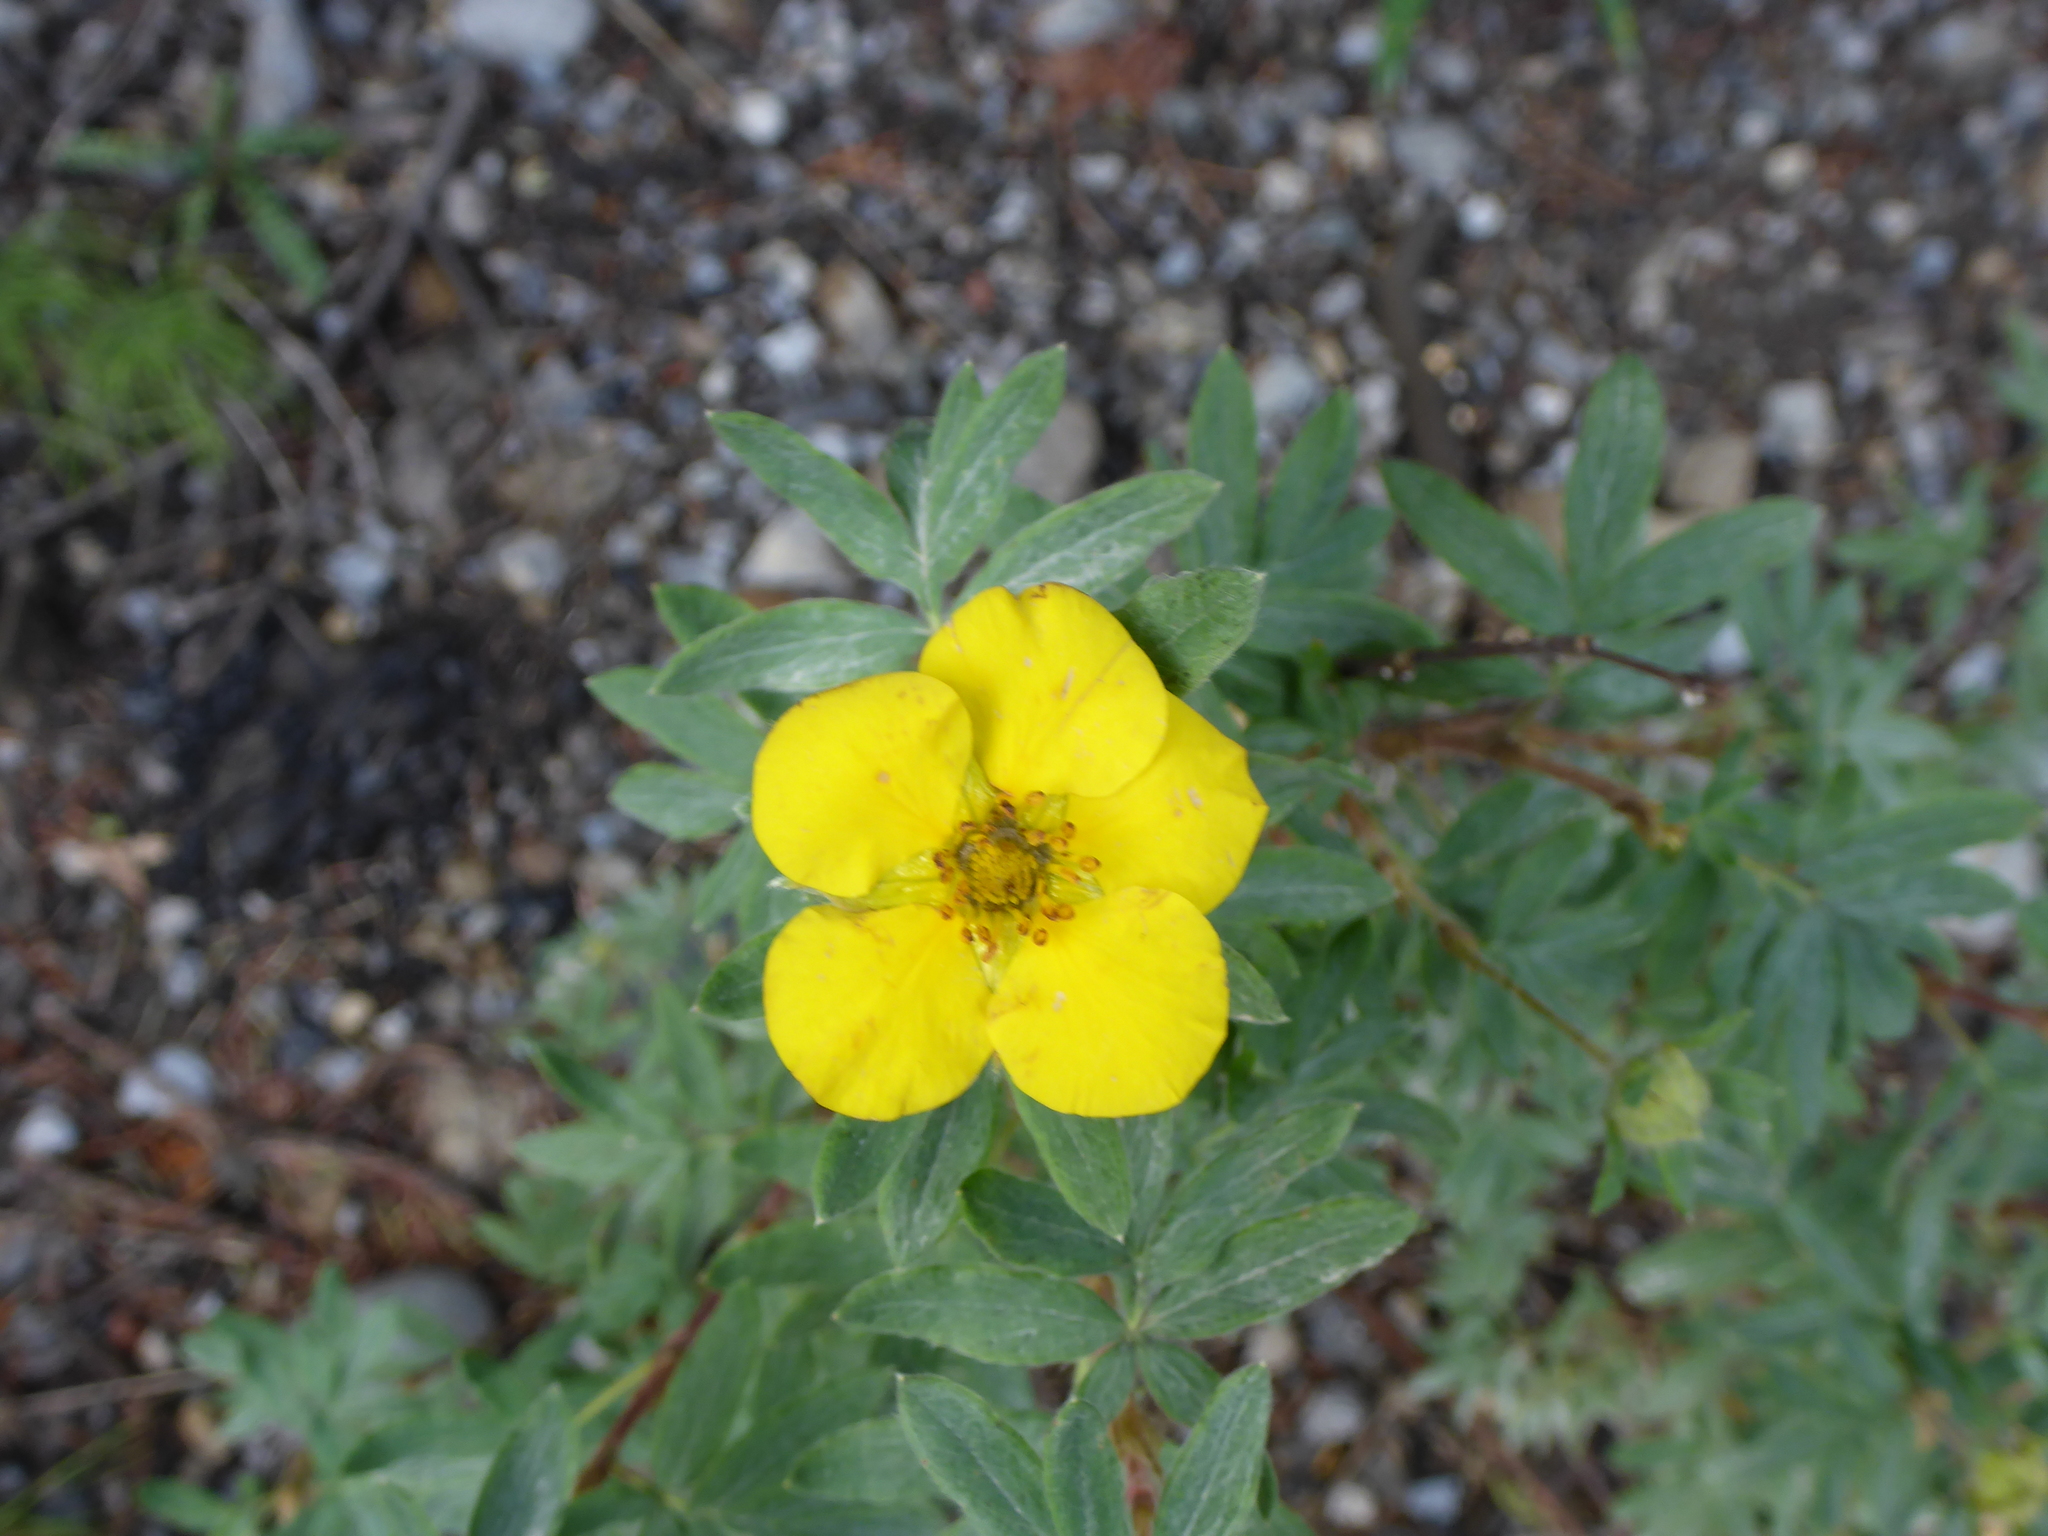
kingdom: Plantae
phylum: Tracheophyta
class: Magnoliopsida
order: Rosales
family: Rosaceae
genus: Dasiphora
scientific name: Dasiphora fruticosa
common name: Shrubby cinquefoil
